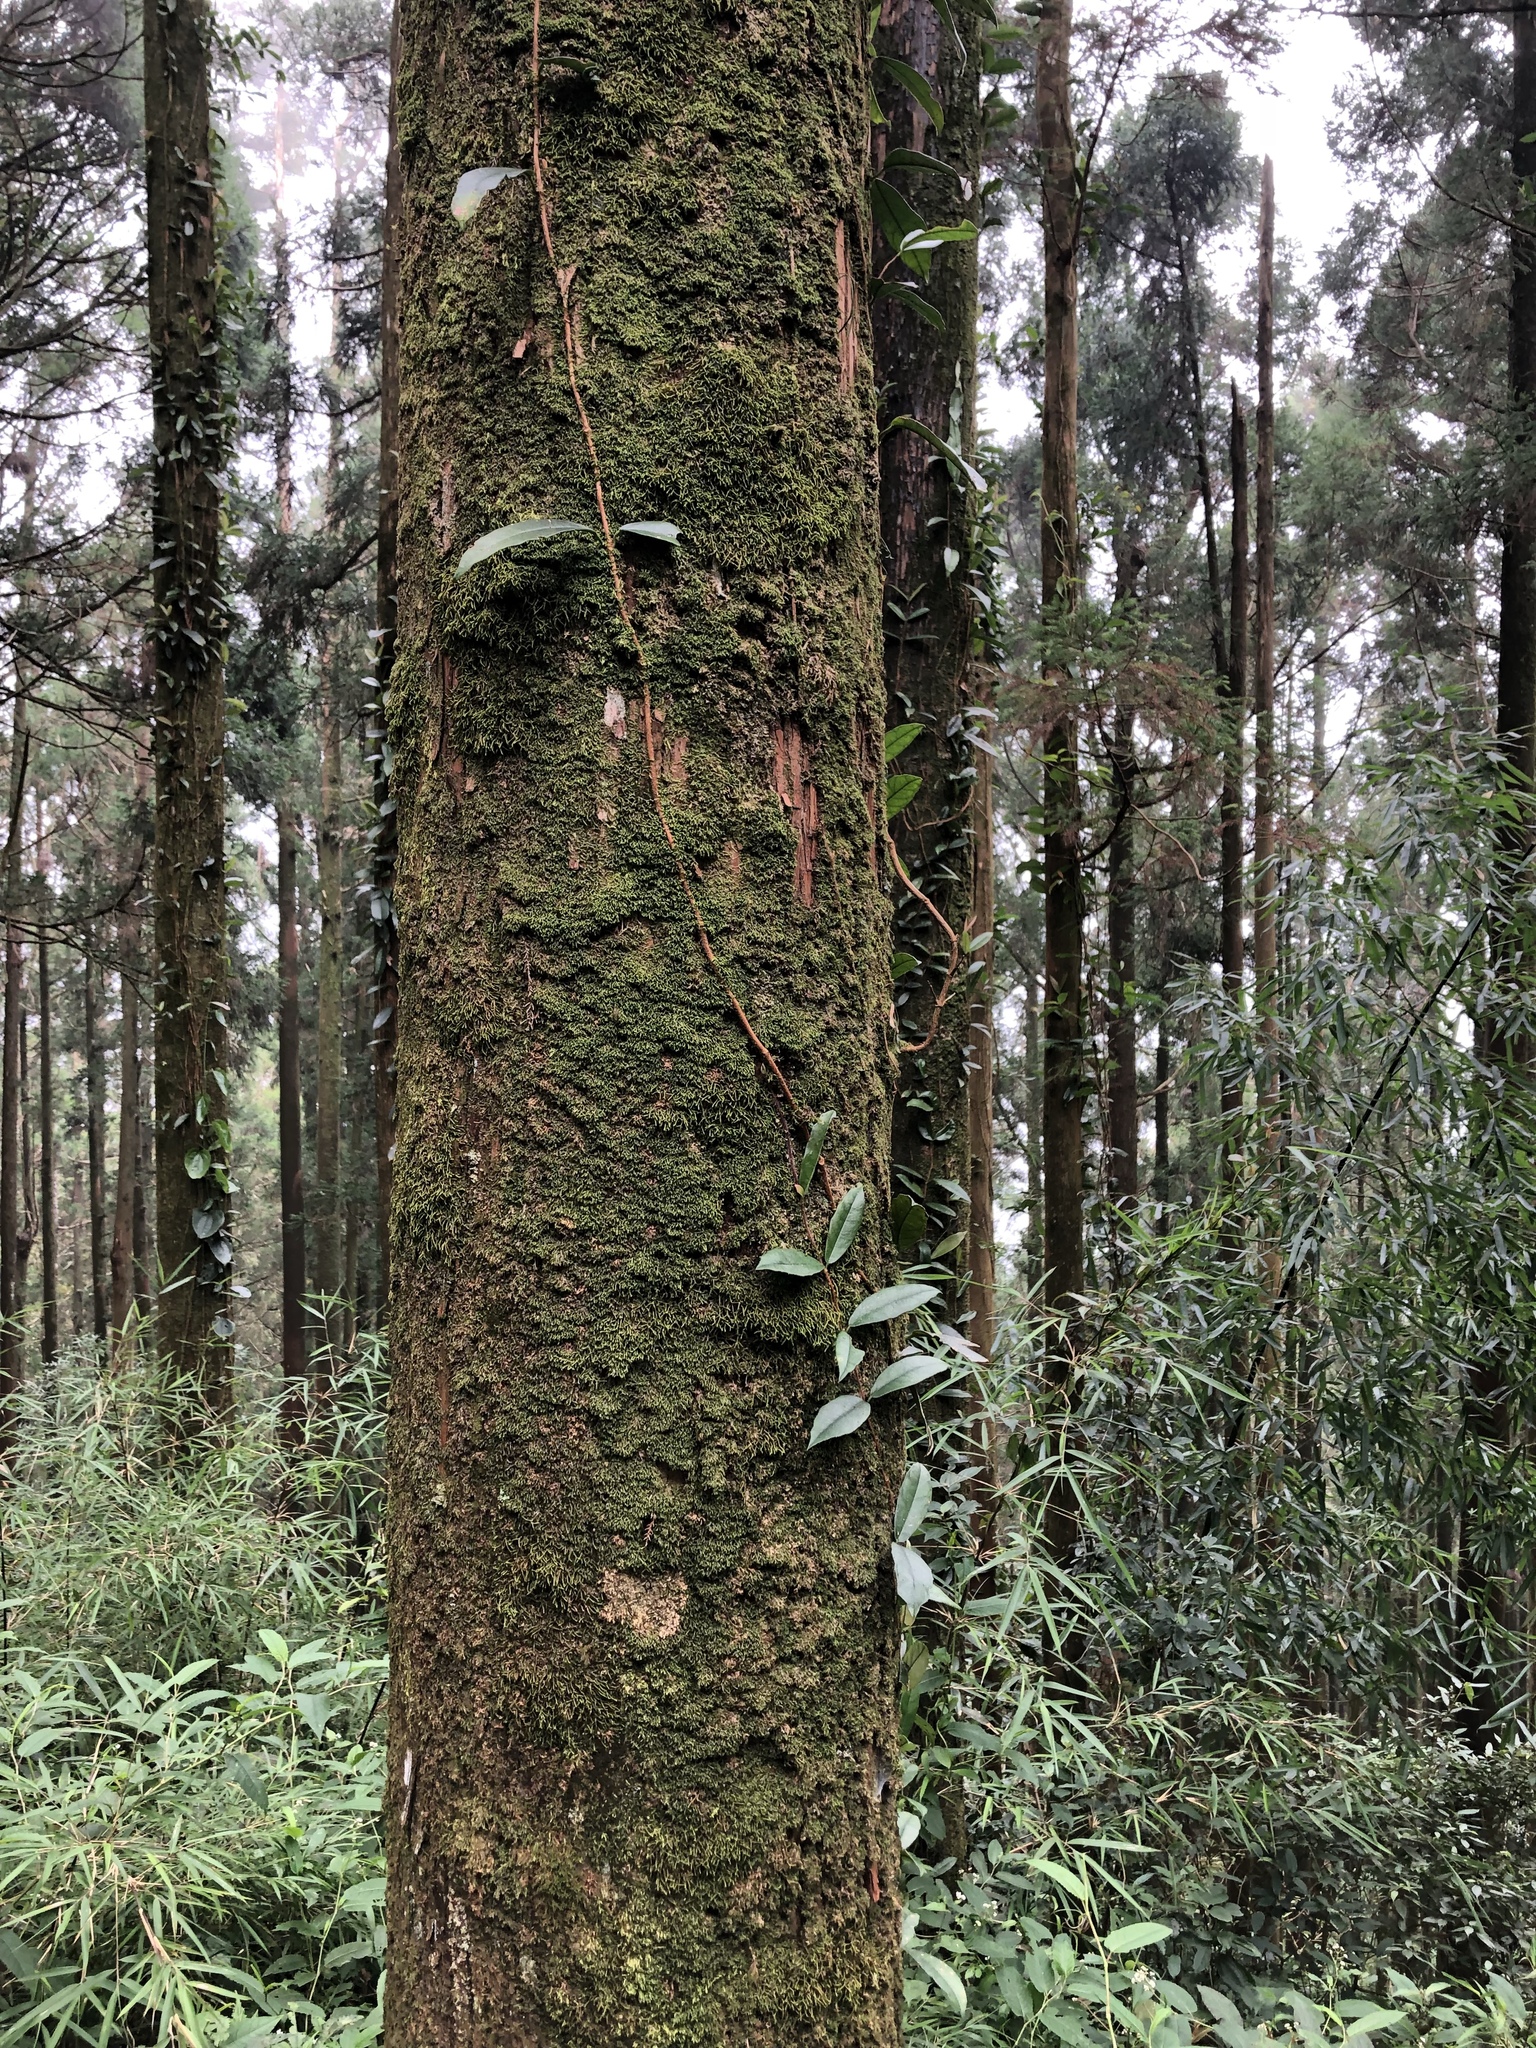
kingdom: Plantae
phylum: Tracheophyta
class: Magnoliopsida
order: Cornales
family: Hydrangeaceae
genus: Hydrangea
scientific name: Hydrangea integrifolia
